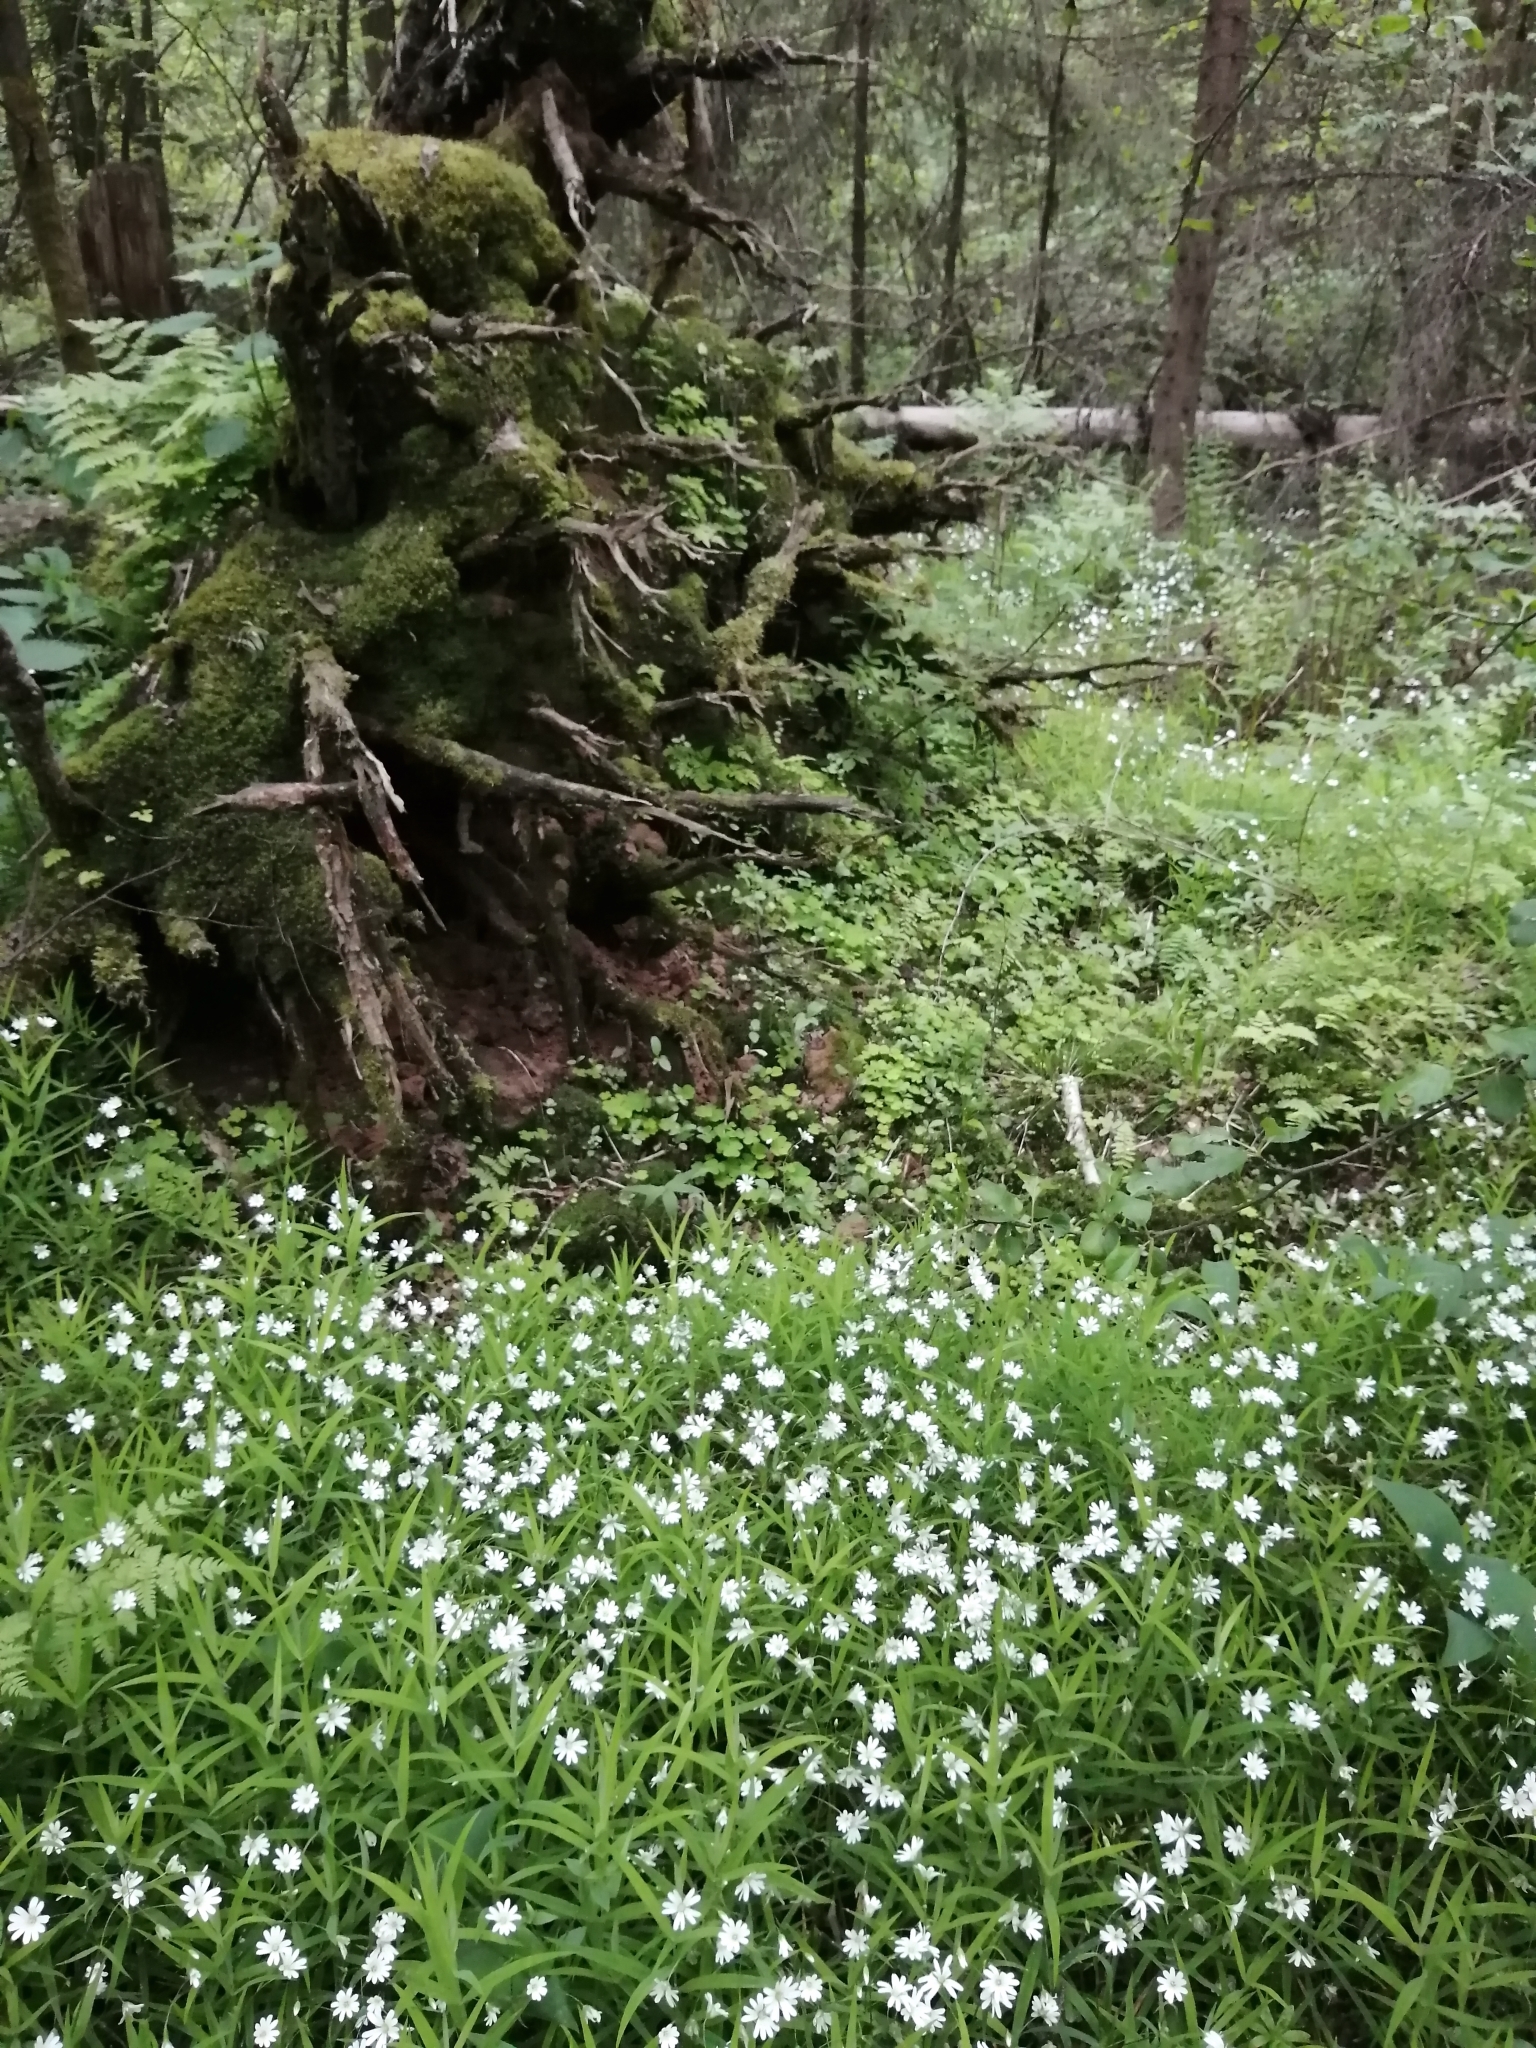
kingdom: Plantae
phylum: Tracheophyta
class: Magnoliopsida
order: Caryophyllales
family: Caryophyllaceae
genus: Rabelera
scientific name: Rabelera holostea
